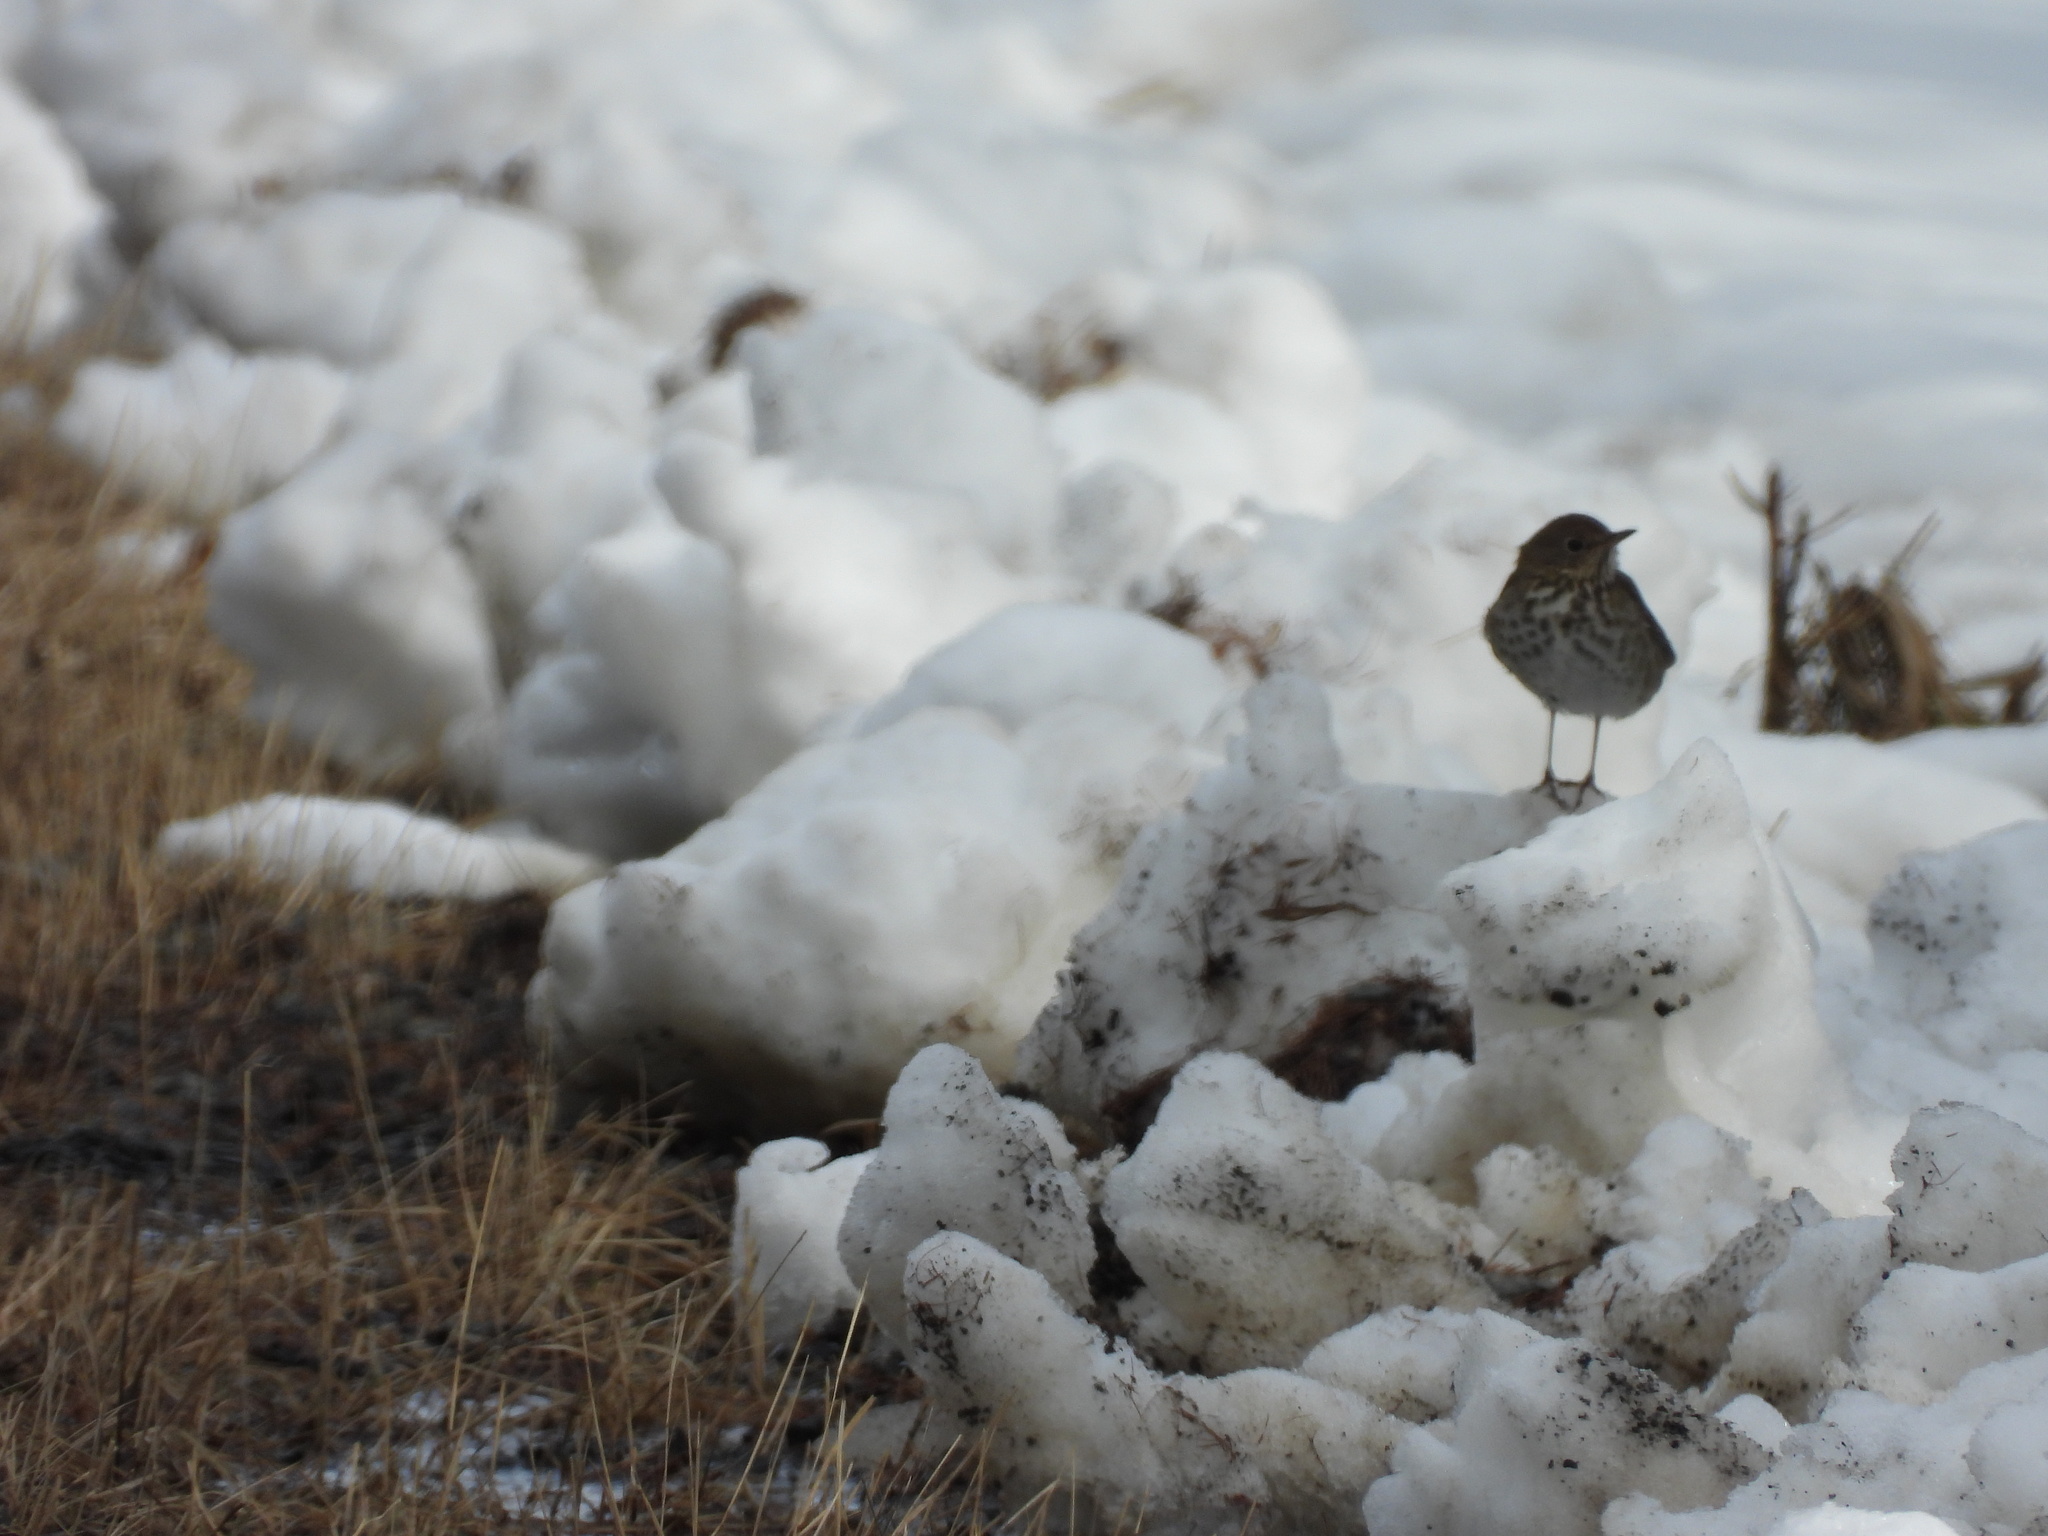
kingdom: Animalia
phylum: Chordata
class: Aves
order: Passeriformes
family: Turdidae
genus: Catharus
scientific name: Catharus guttatus
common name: Hermit thrush
